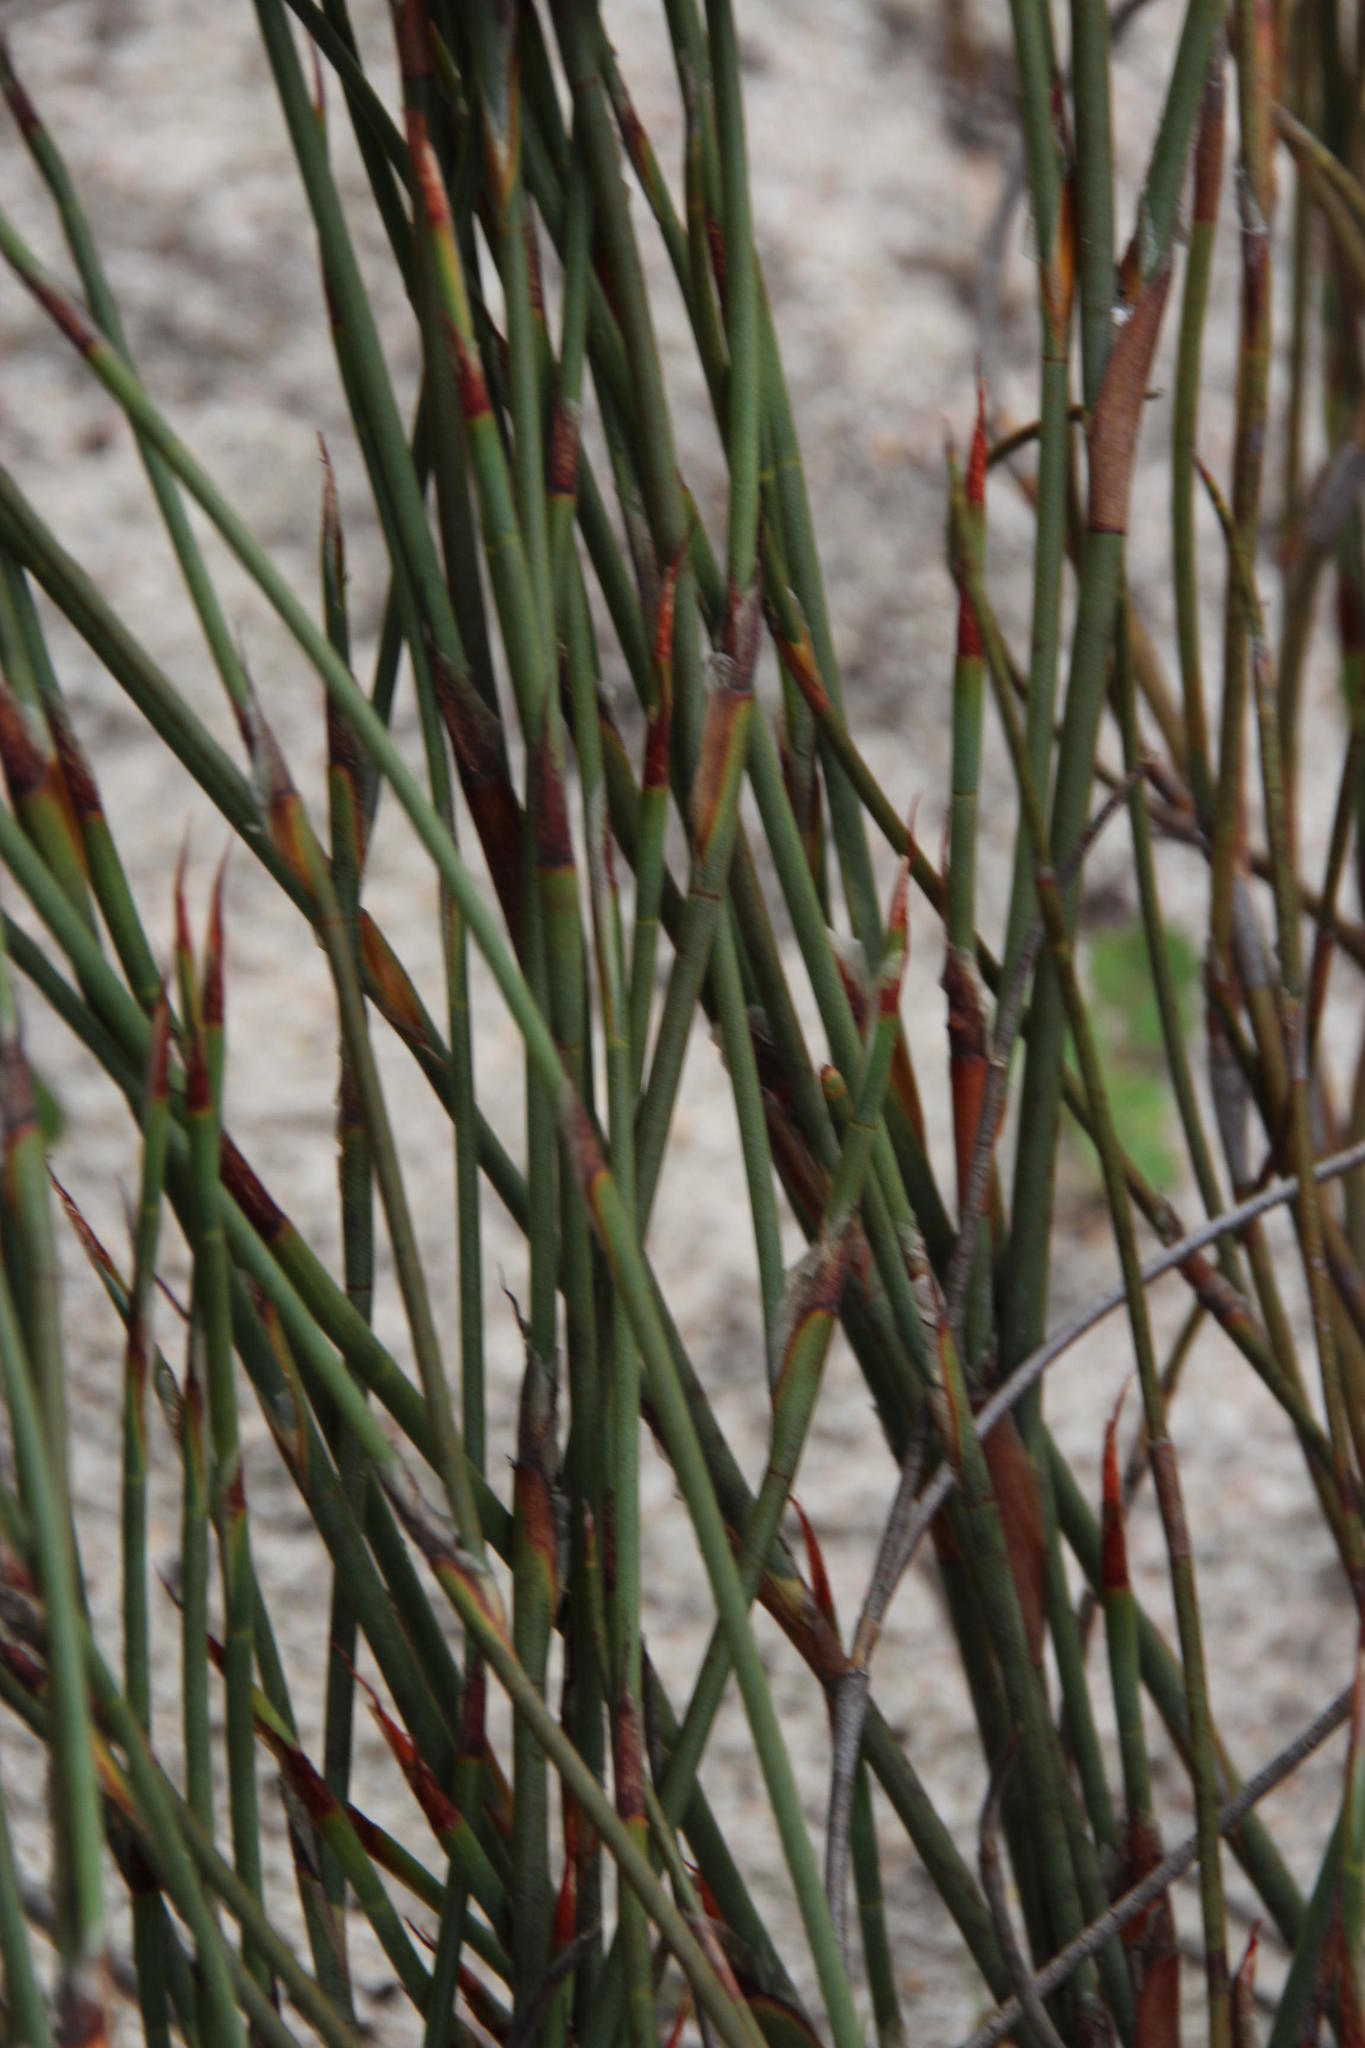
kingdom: Plantae
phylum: Tracheophyta
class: Liliopsida
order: Poales
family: Restionaceae
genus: Willdenowia
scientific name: Willdenowia arescens
